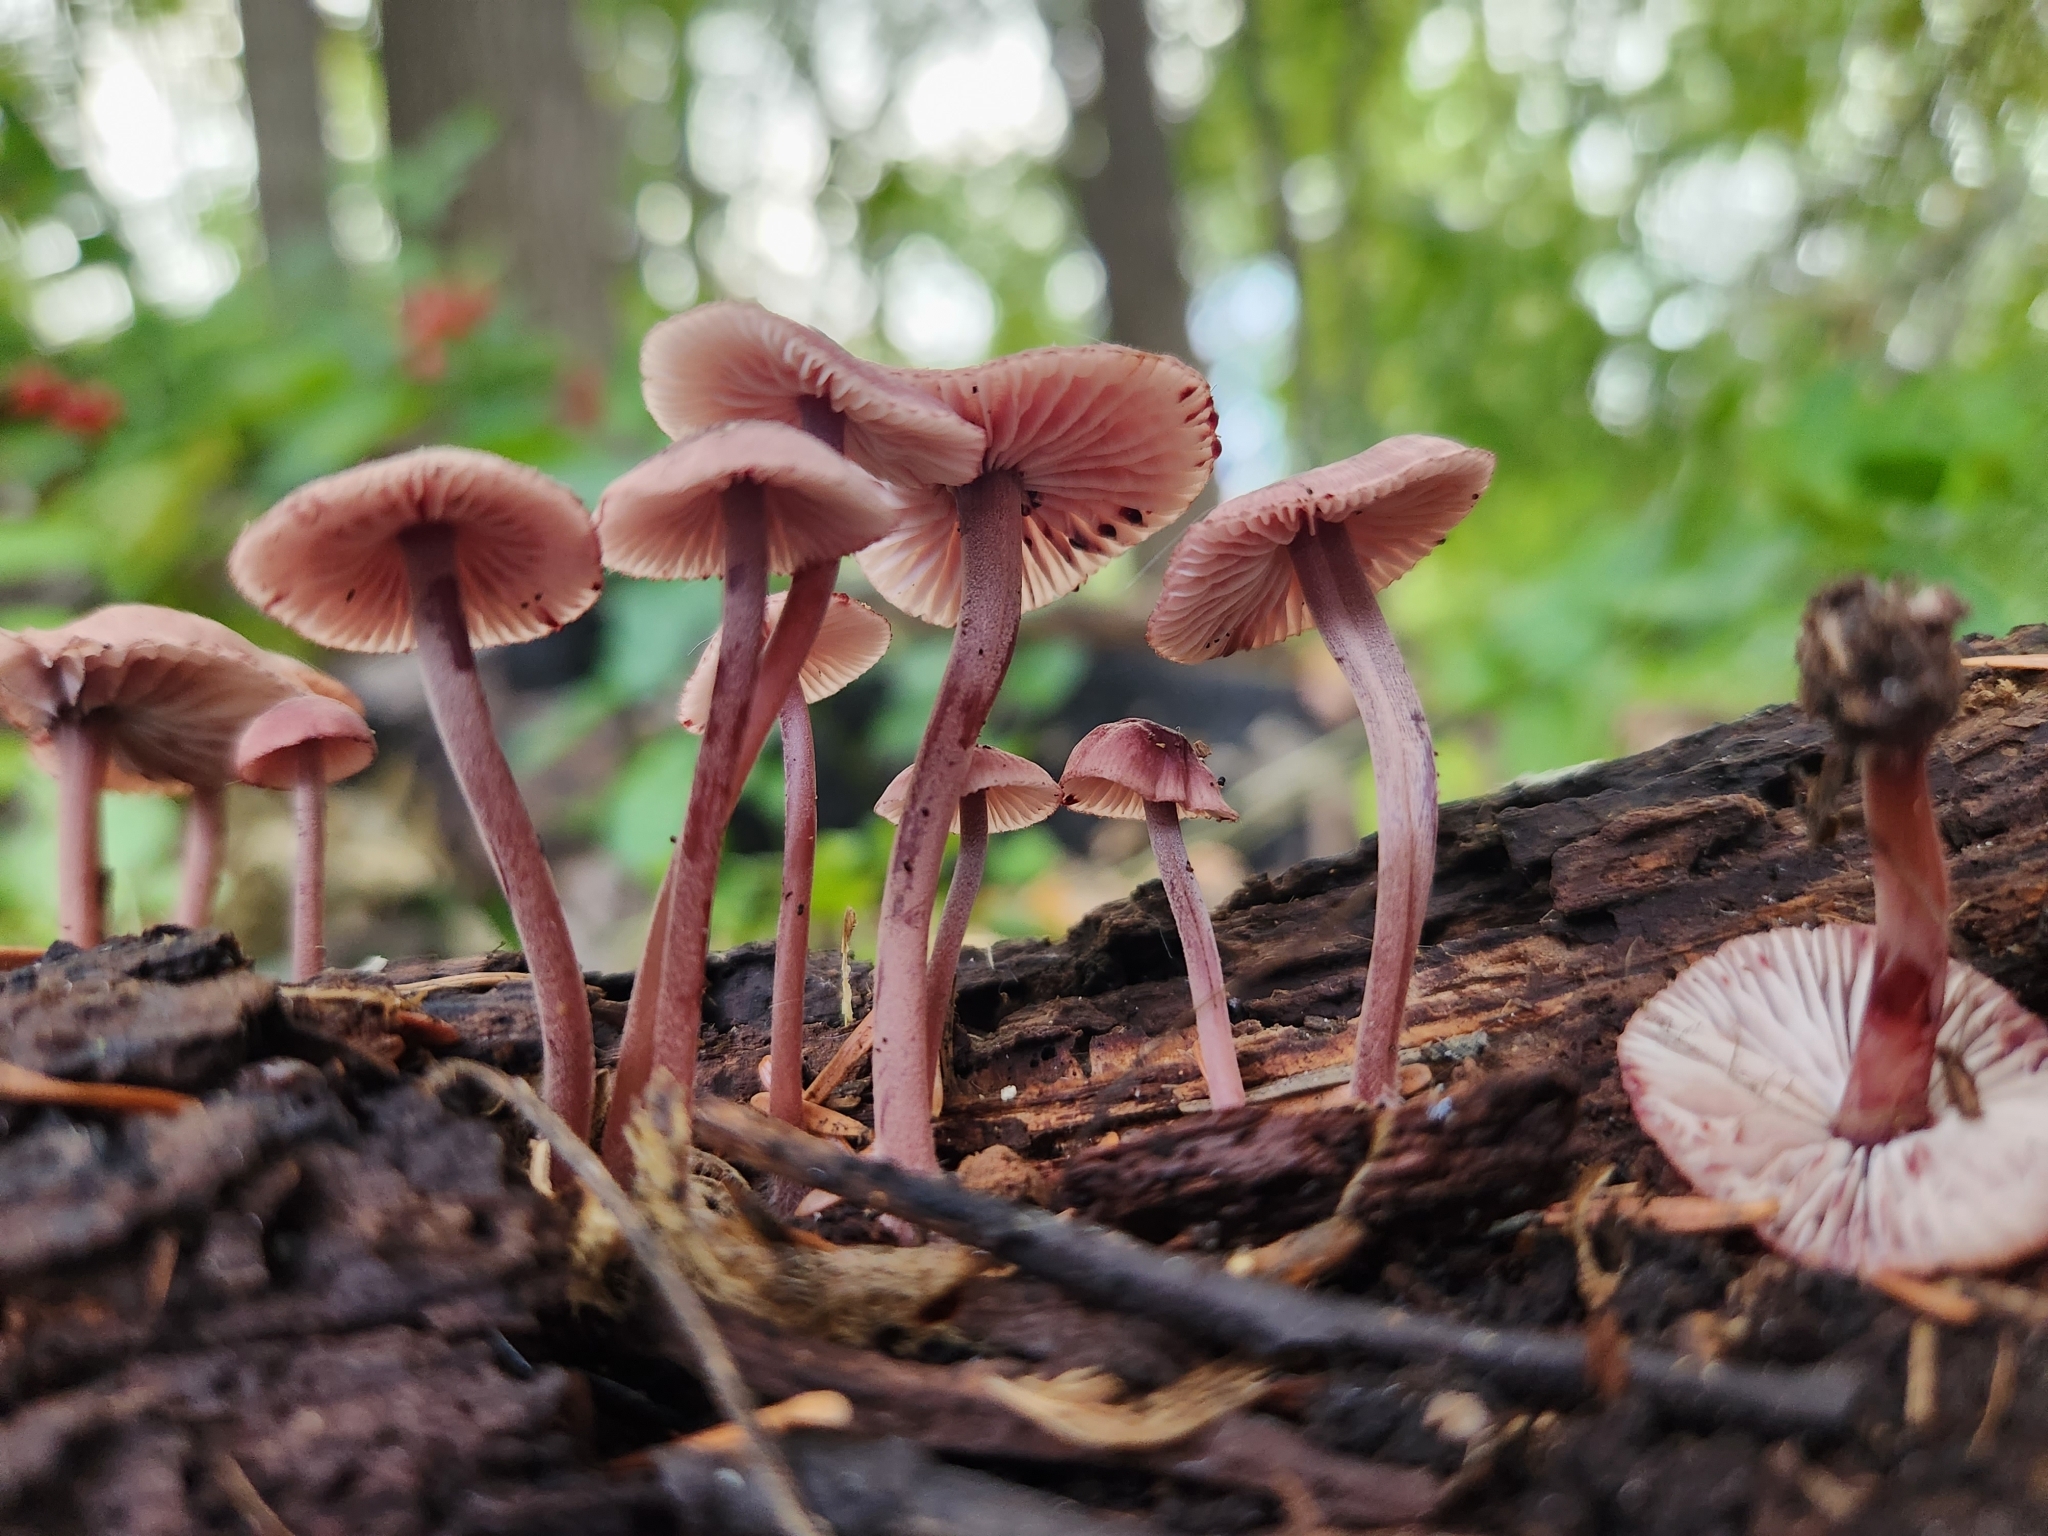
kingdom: Fungi
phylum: Basidiomycota
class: Agaricomycetes
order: Agaricales
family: Mycenaceae
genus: Mycena
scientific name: Mycena haematopus
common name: Burgundydrop bonnet
